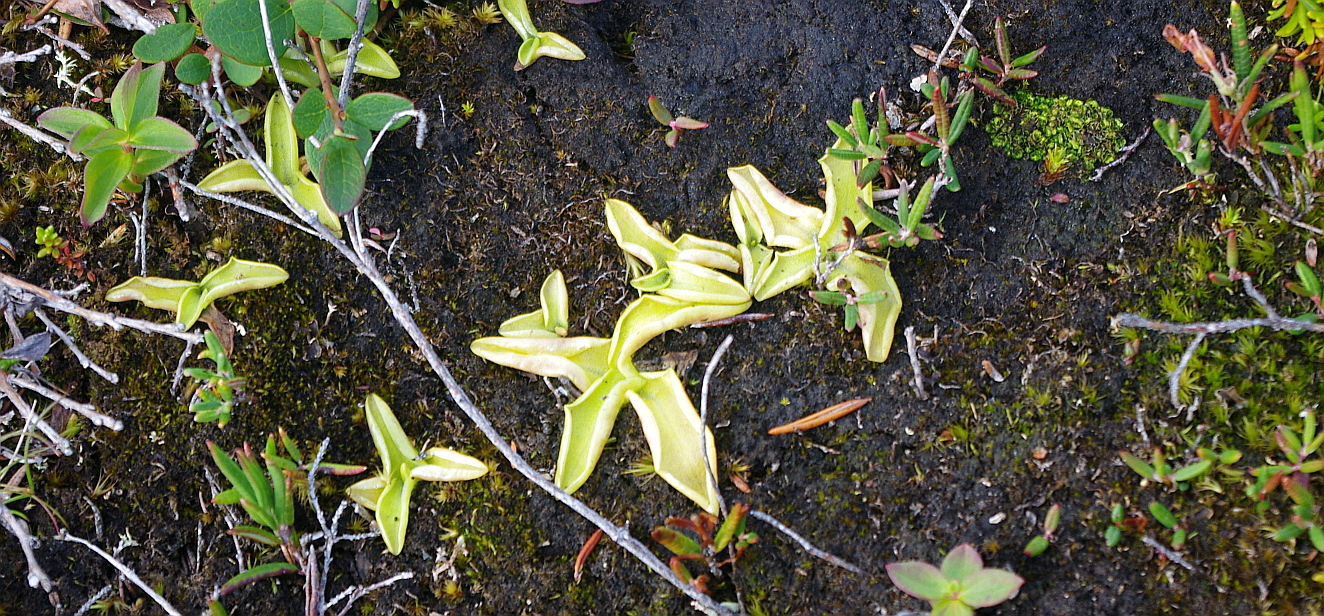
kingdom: Plantae
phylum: Tracheophyta
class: Magnoliopsida
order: Lamiales
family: Lentibulariaceae
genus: Pinguicula
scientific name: Pinguicula vulgaris
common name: Common butterwort
